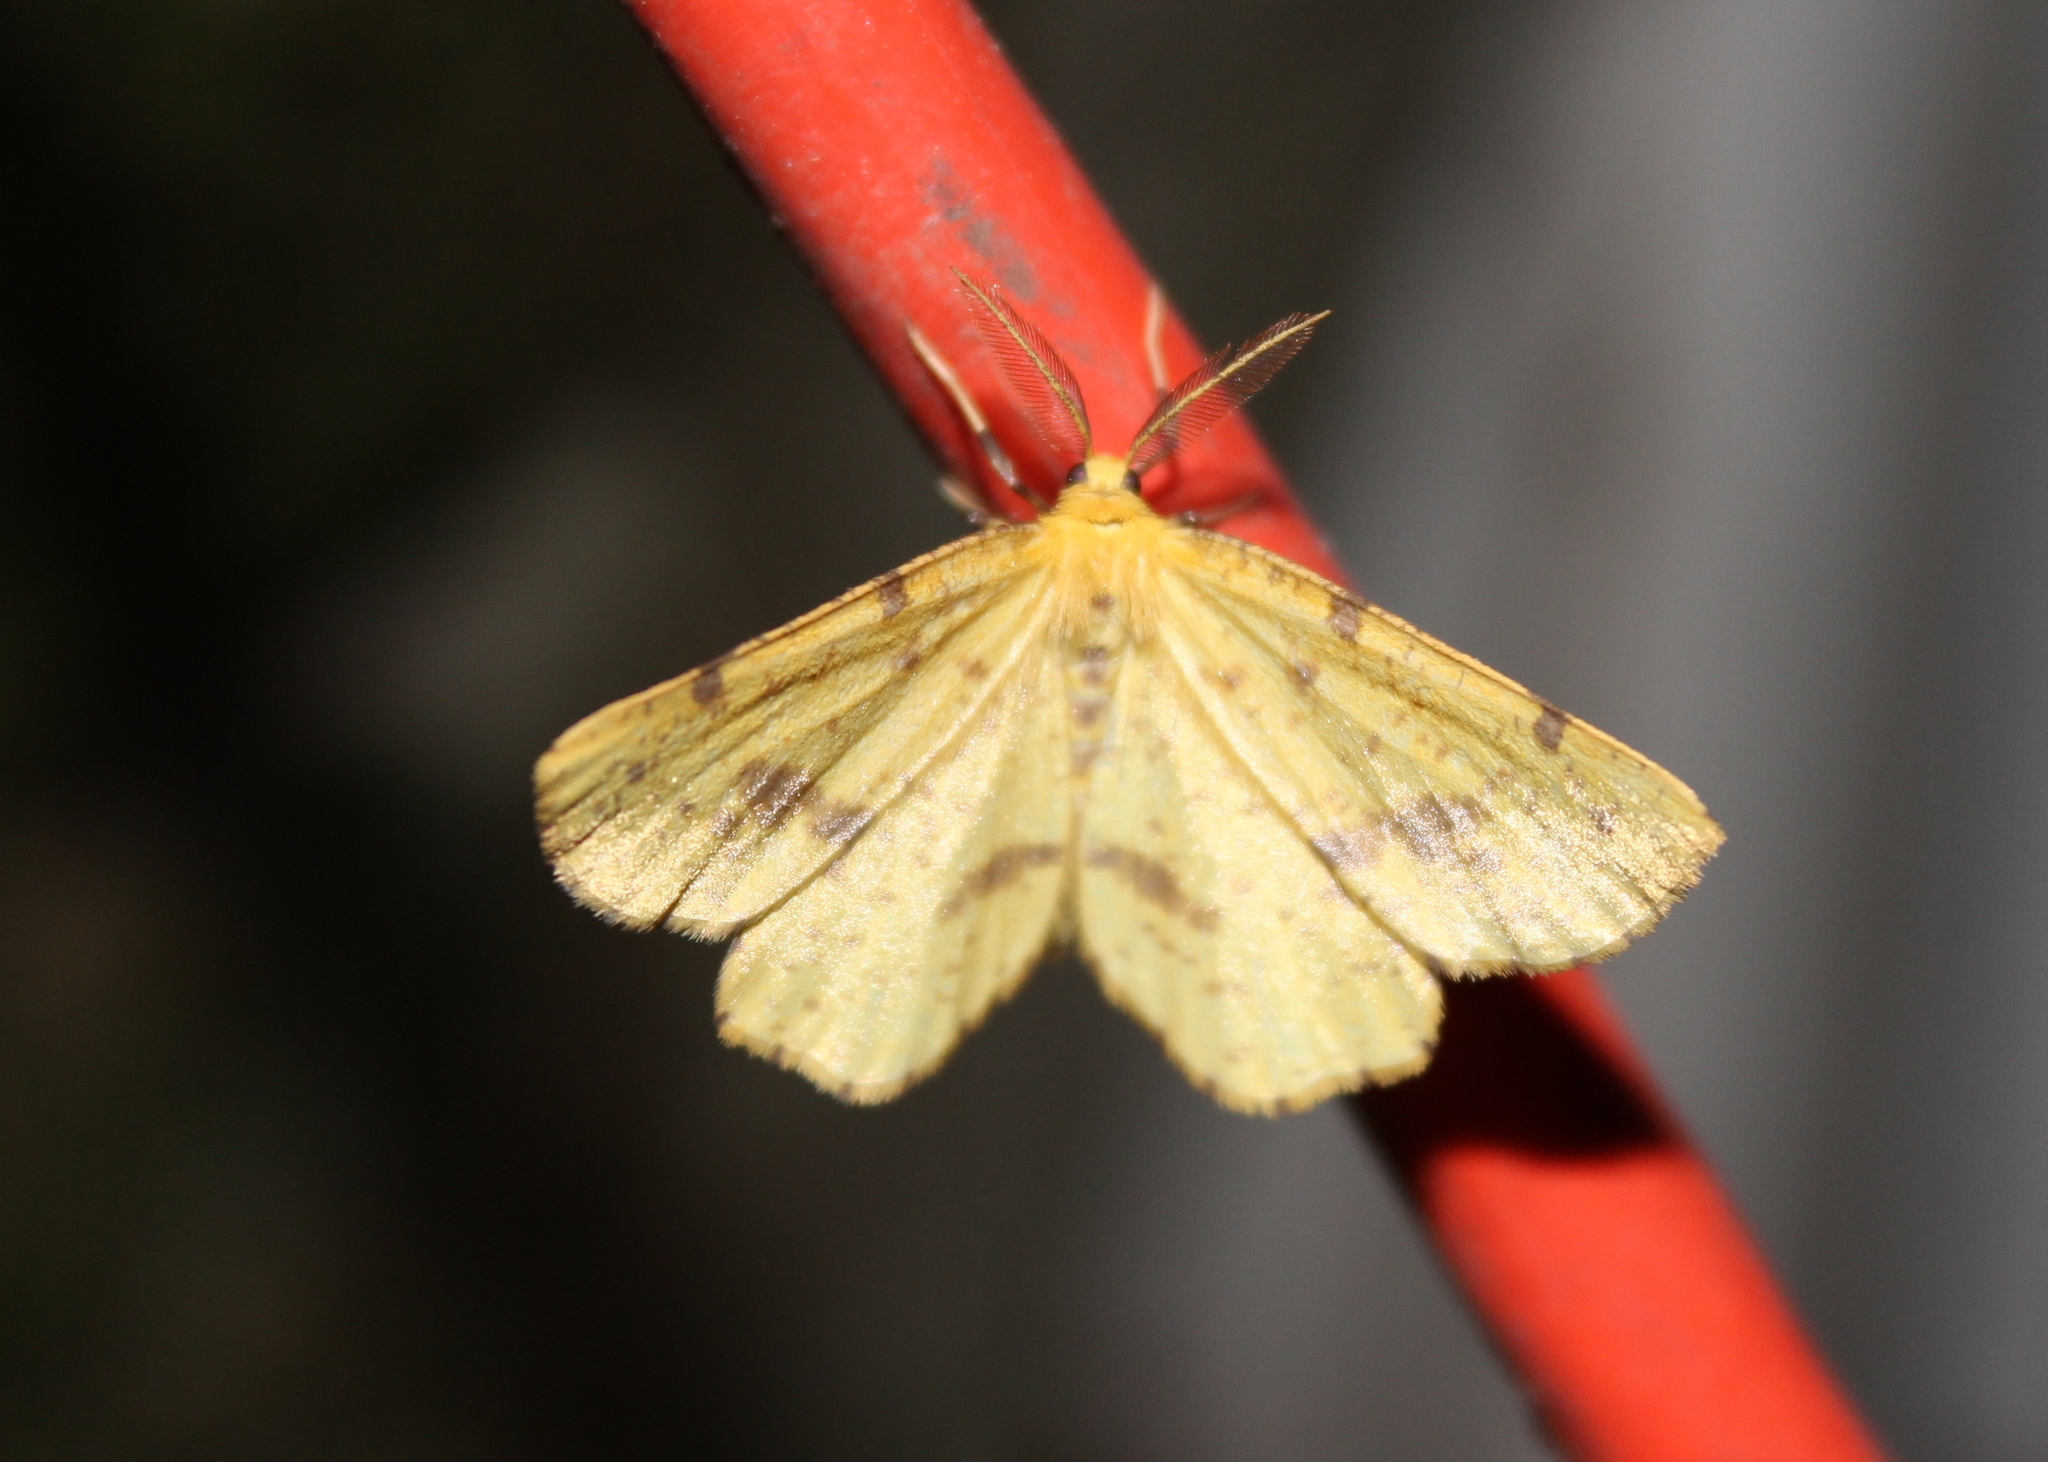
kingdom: Animalia
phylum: Arthropoda
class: Insecta
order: Lepidoptera
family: Geometridae
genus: Xanthotype
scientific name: Xanthotype
